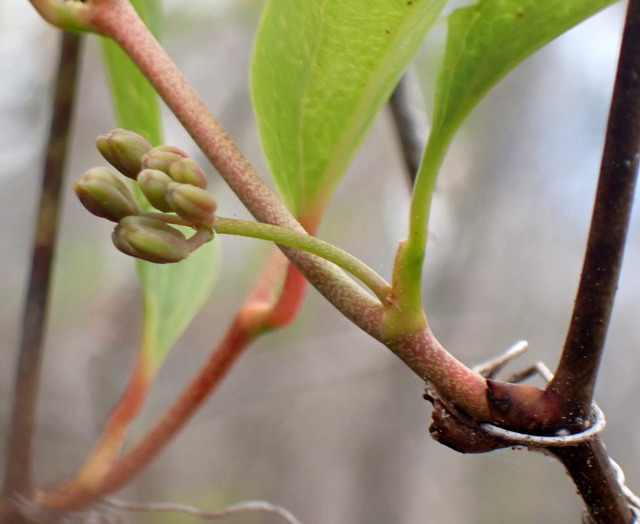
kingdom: Plantae
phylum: Tracheophyta
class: Liliopsida
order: Liliales
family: Smilacaceae
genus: Smilax
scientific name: Smilax walteri
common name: Coral greenbrier
